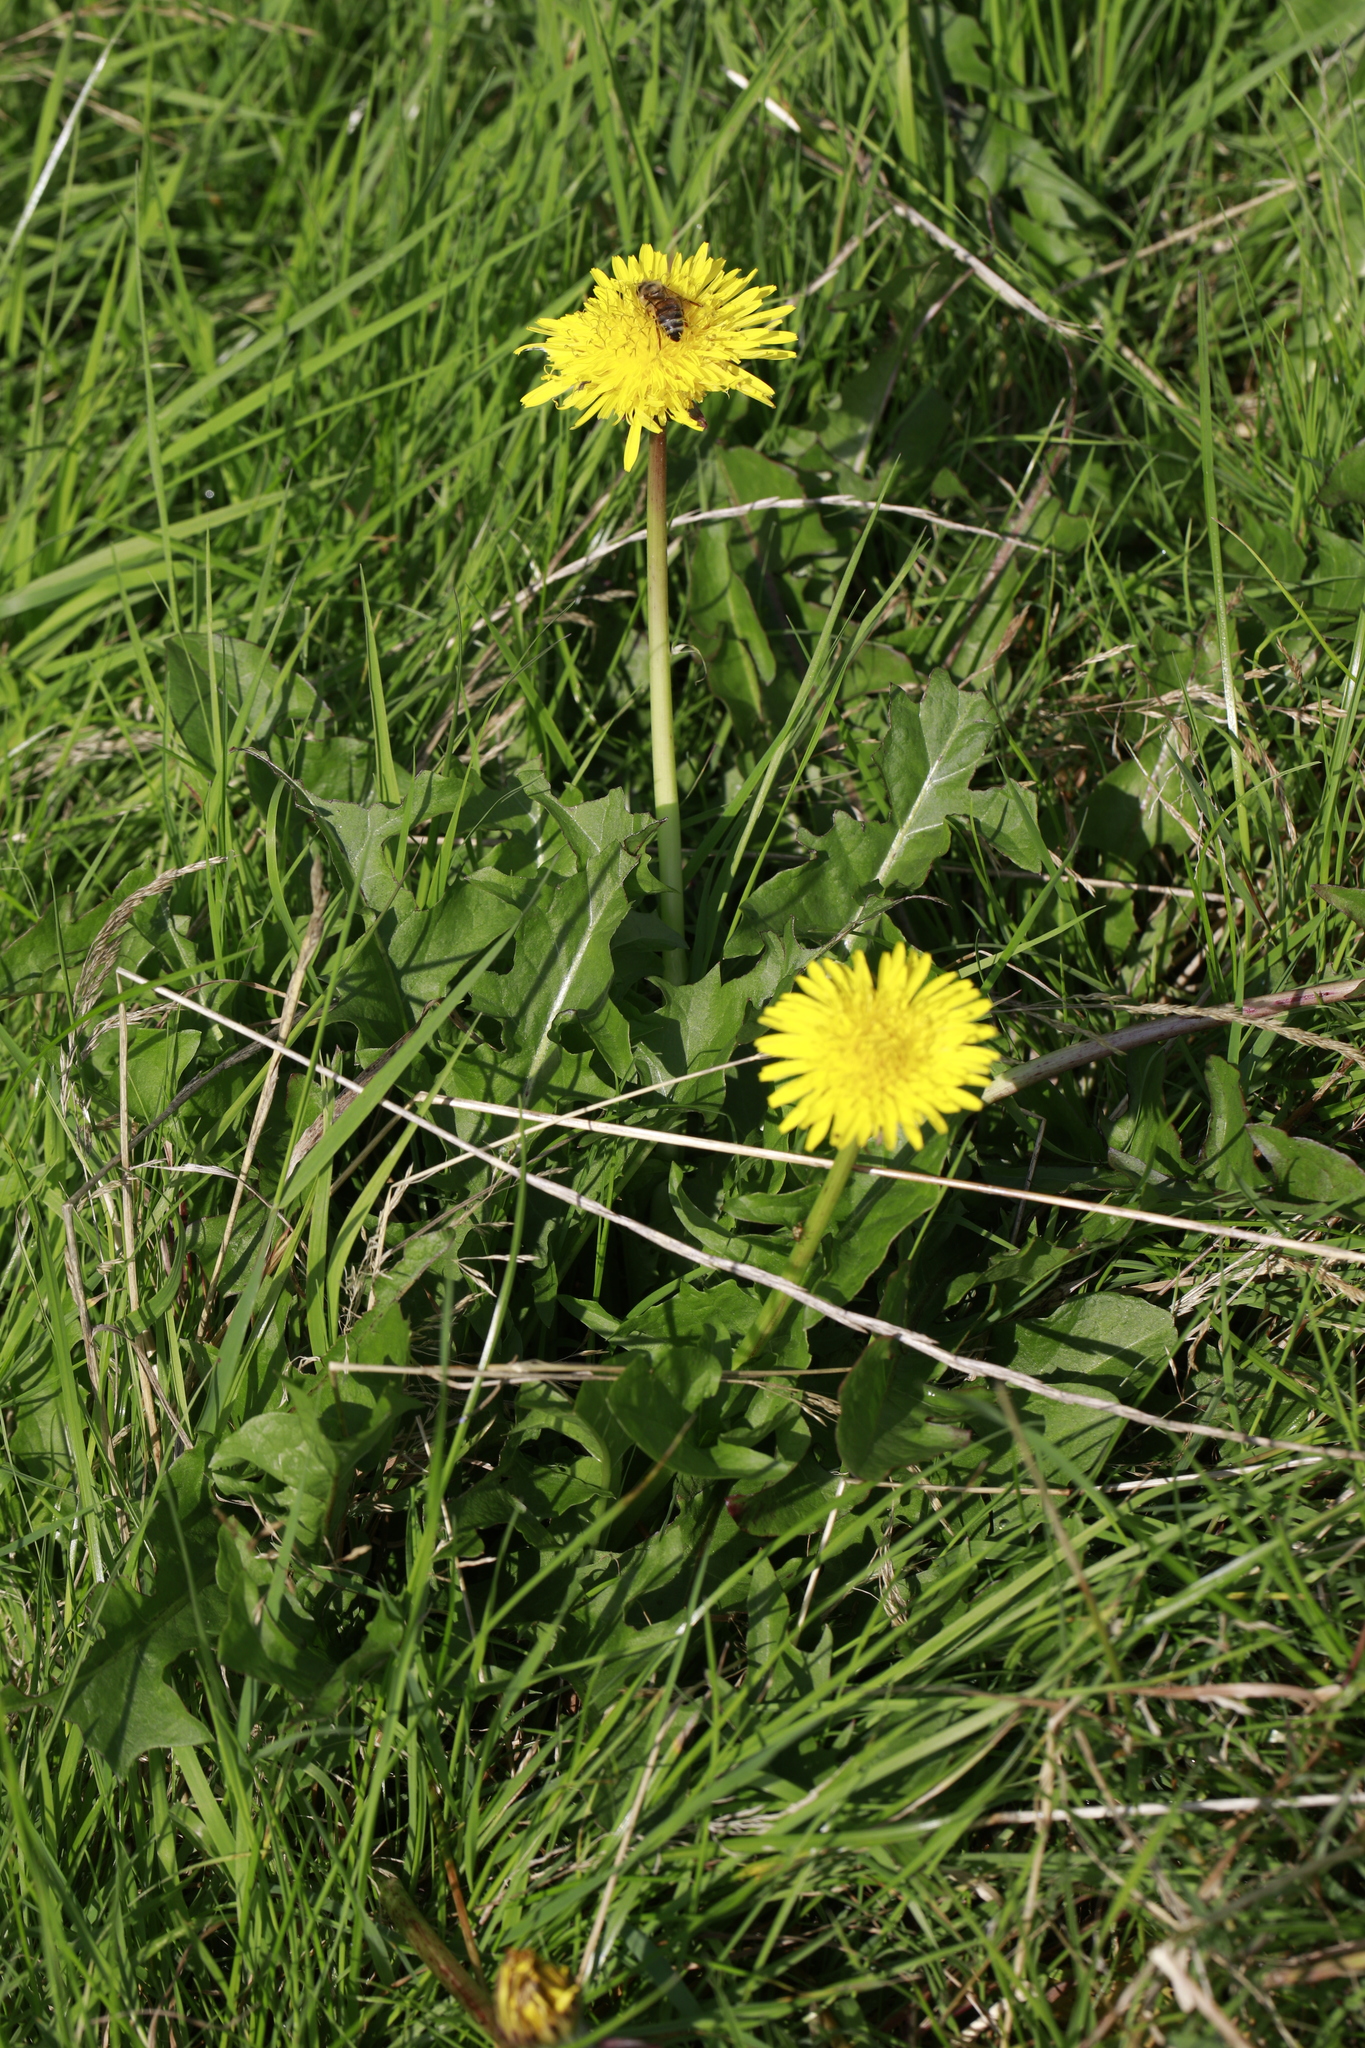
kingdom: Plantae
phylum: Tracheophyta
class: Magnoliopsida
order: Asterales
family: Asteraceae
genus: Taraxacum
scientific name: Taraxacum officinale
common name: Common dandelion
